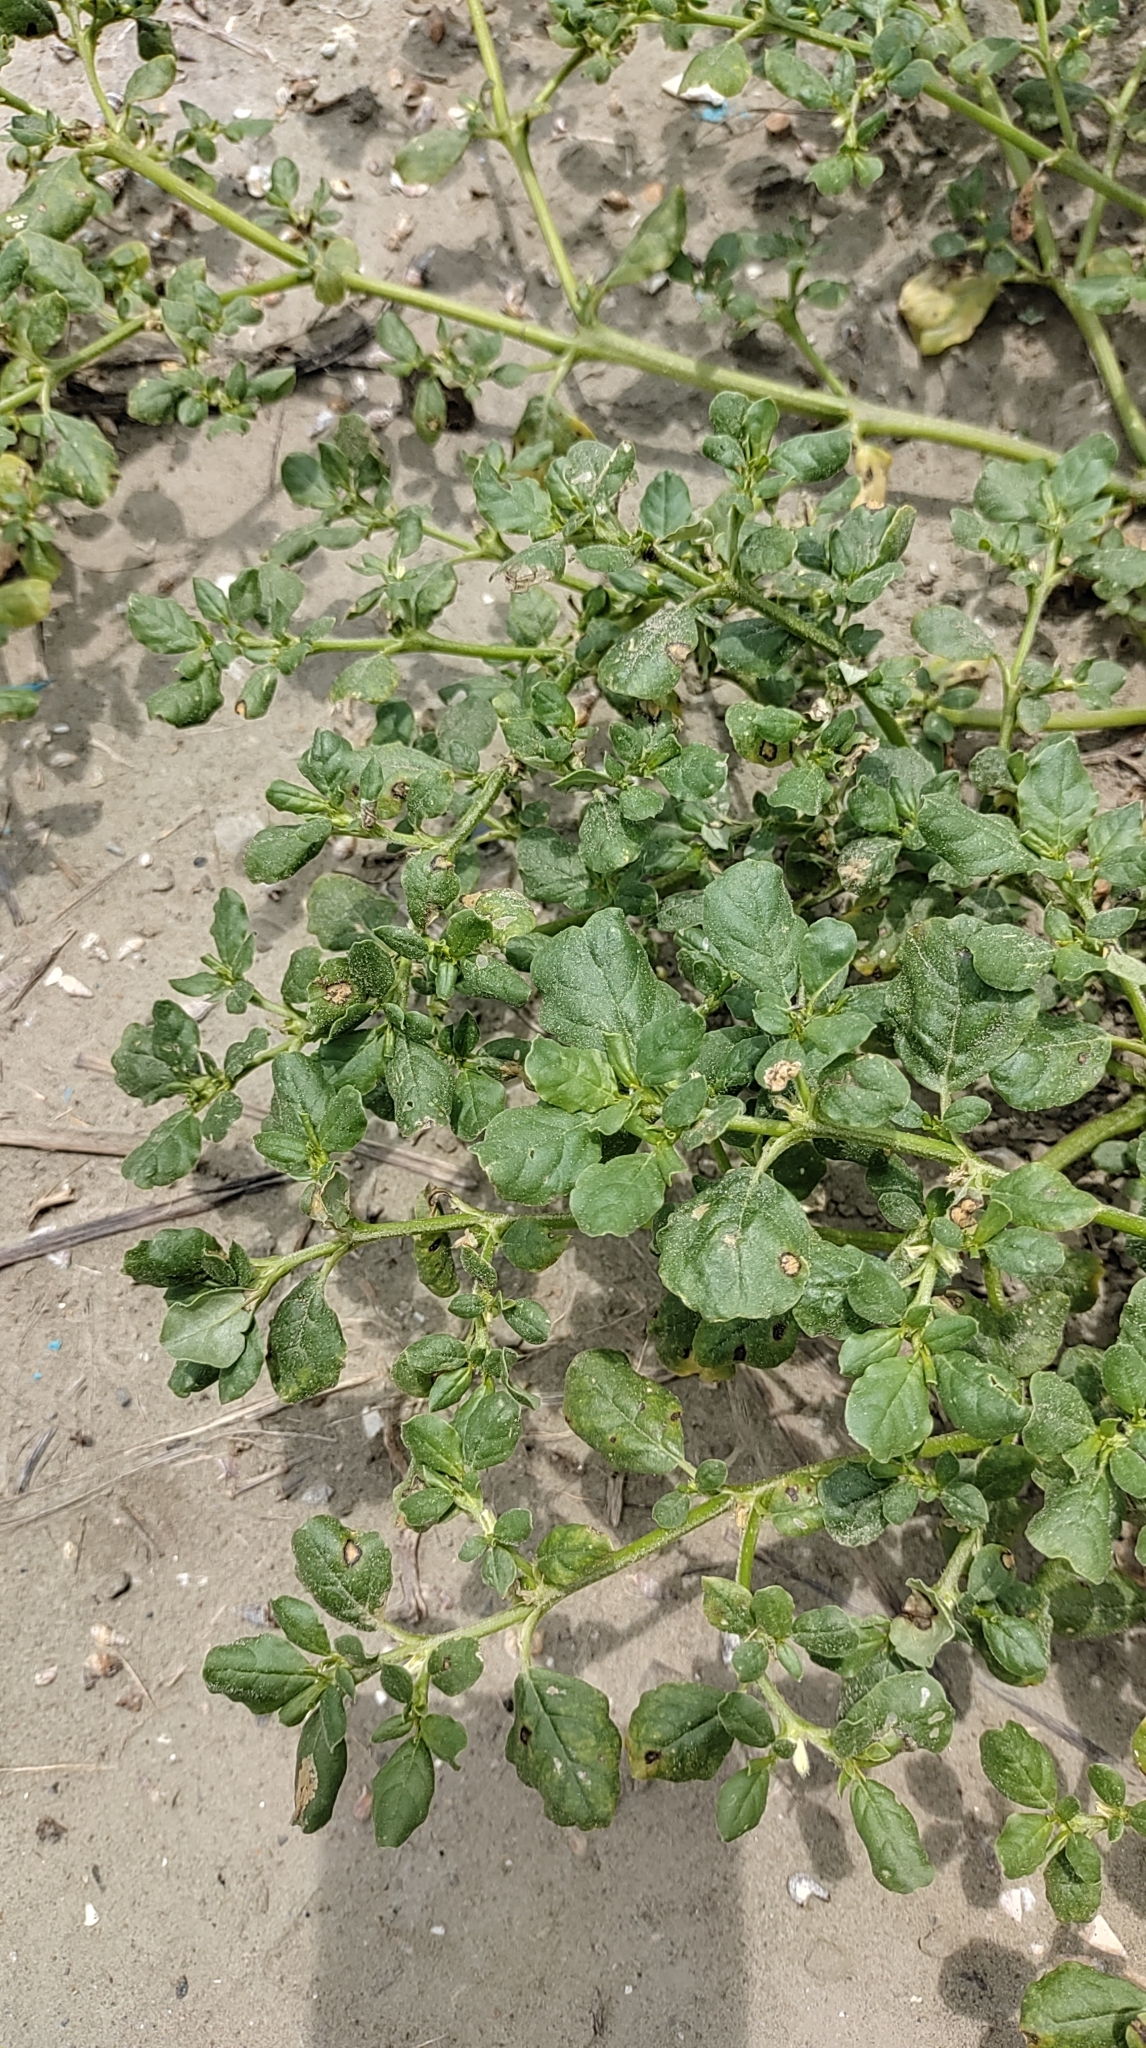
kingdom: Plantae
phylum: Tracheophyta
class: Magnoliopsida
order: Caryophyllales
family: Aizoaceae
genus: Trianthema
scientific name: Trianthema portulacastrum
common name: Desert horsepurslane
